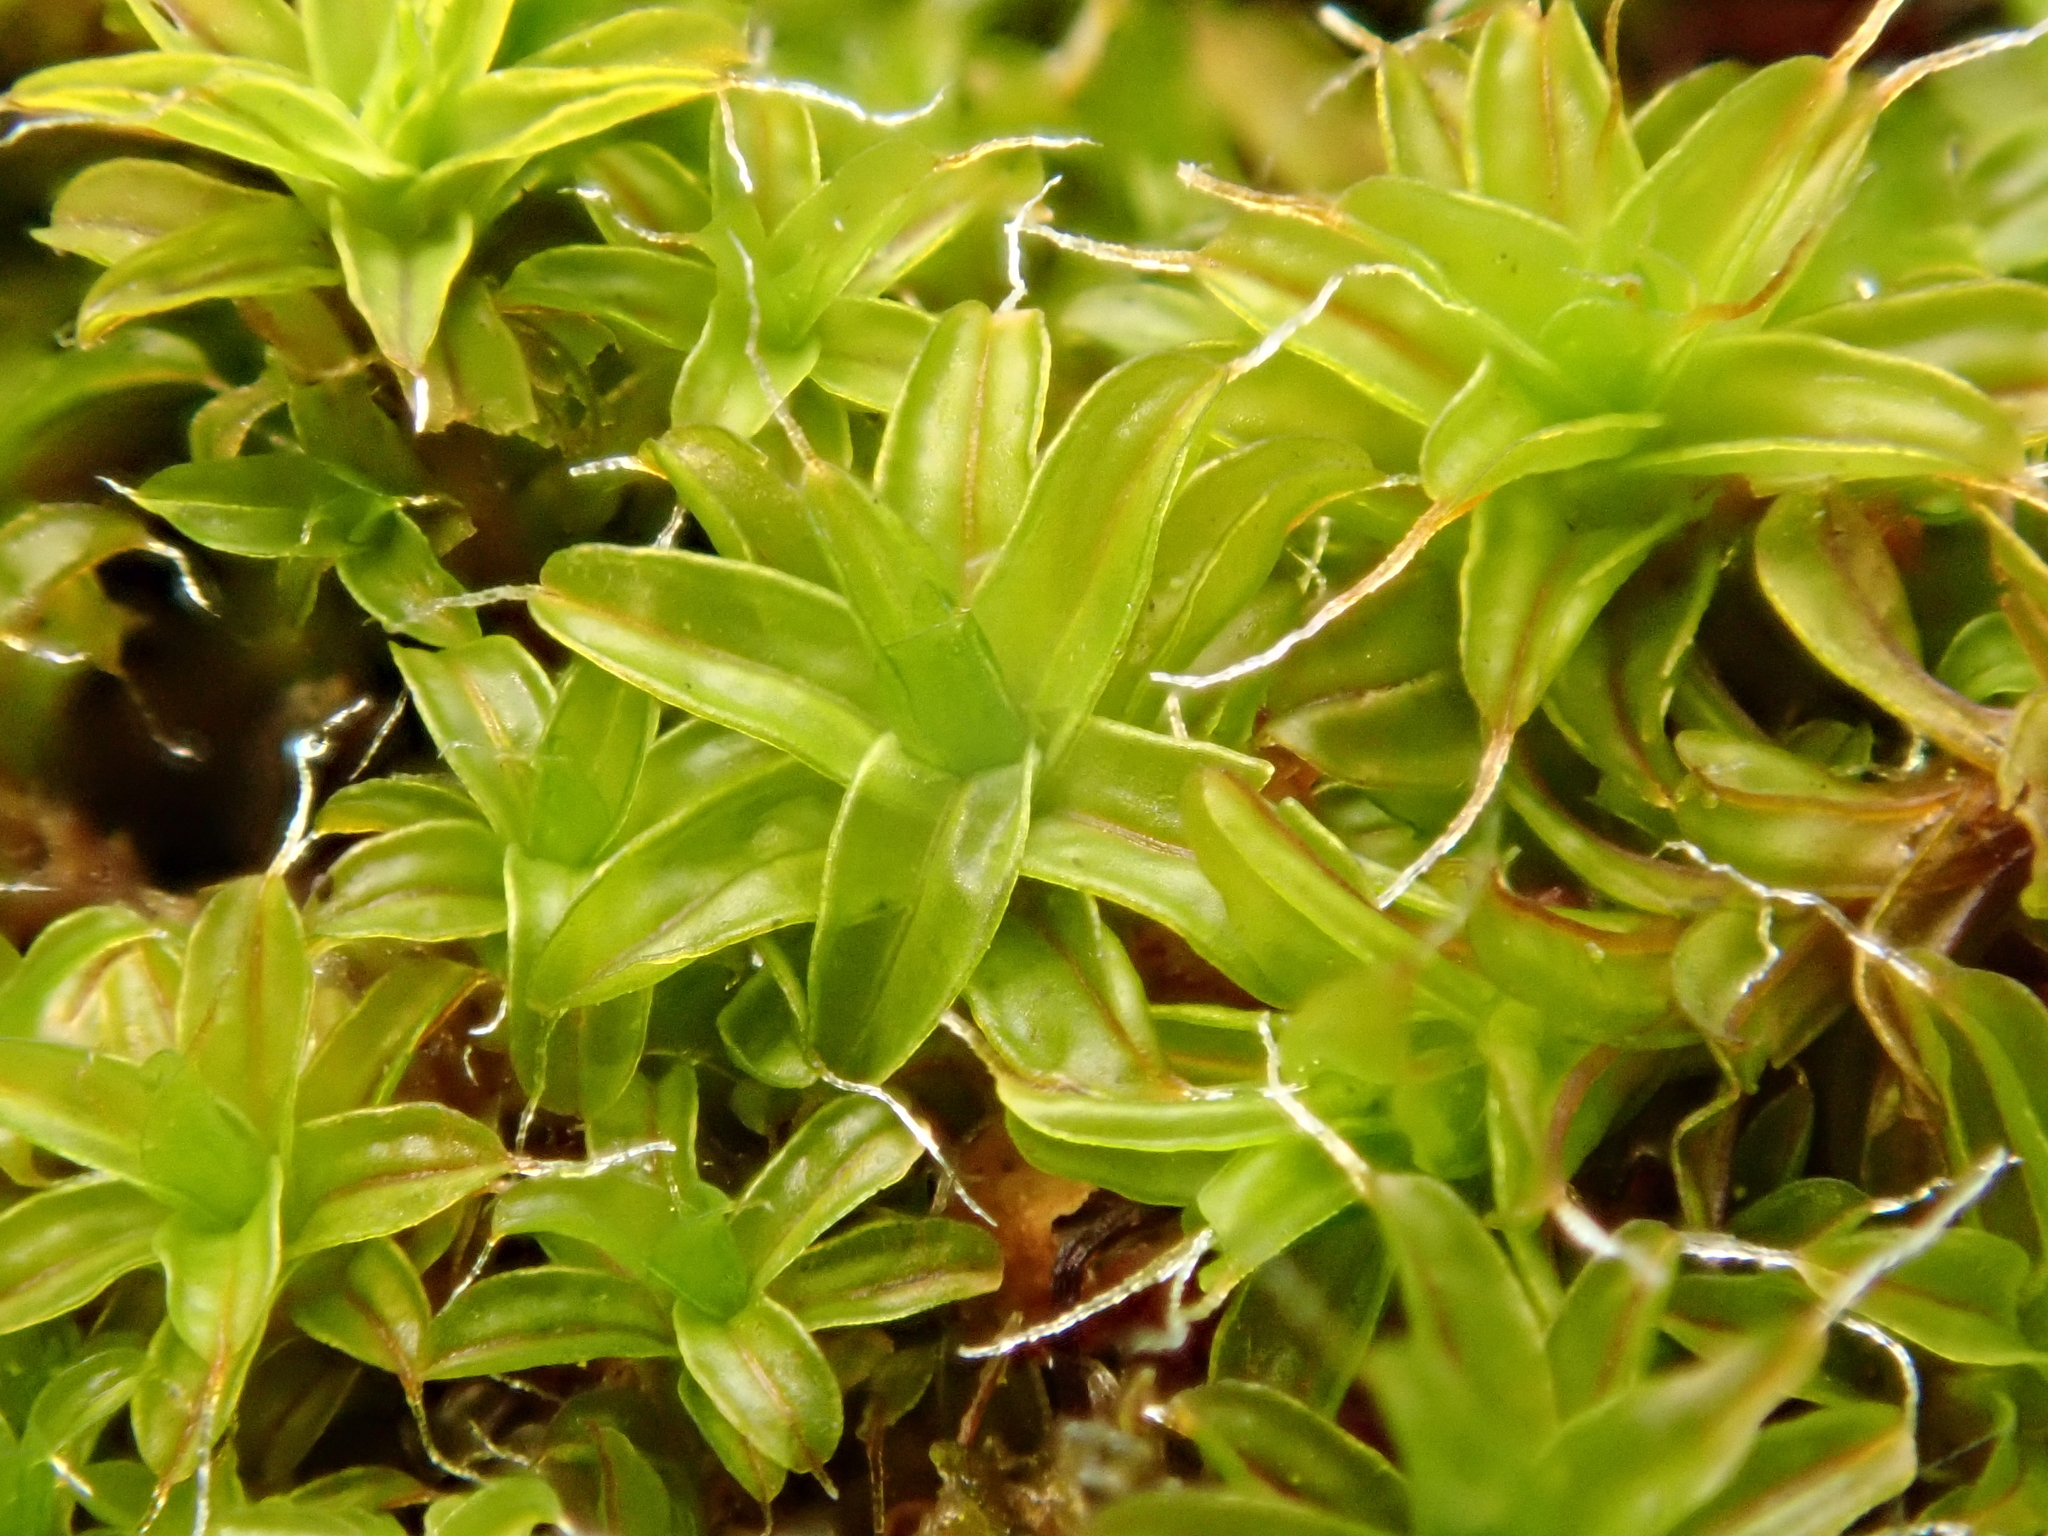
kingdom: Plantae
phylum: Bryophyta
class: Bryopsida
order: Pottiales
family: Pottiaceae
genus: Syntrichia
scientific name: Syntrichia ruralis
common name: Sidewalk screw moss
